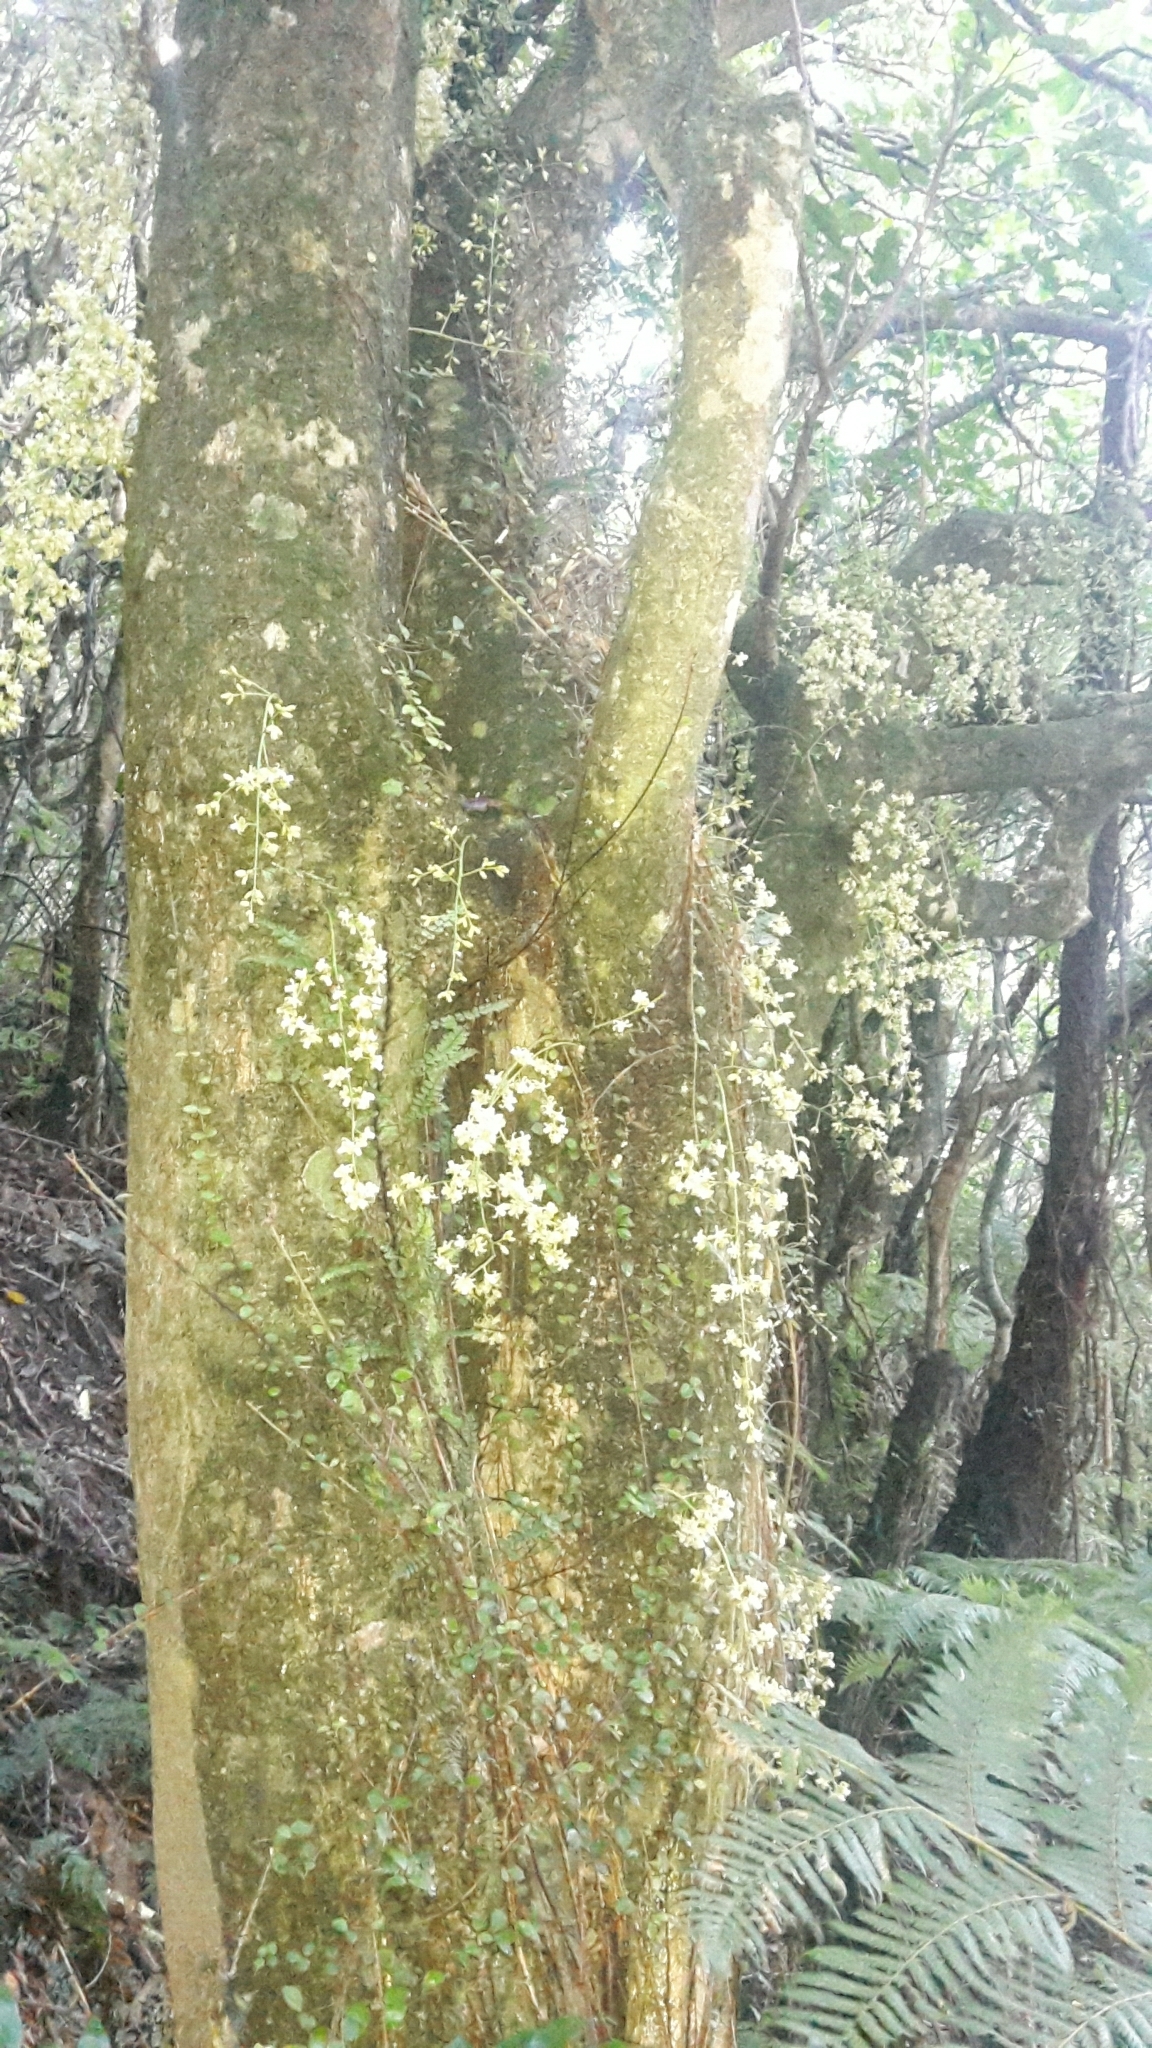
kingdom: Plantae
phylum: Tracheophyta
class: Magnoliopsida
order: Sapindales
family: Meliaceae
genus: Didymocheton
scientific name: Didymocheton spectabilis
